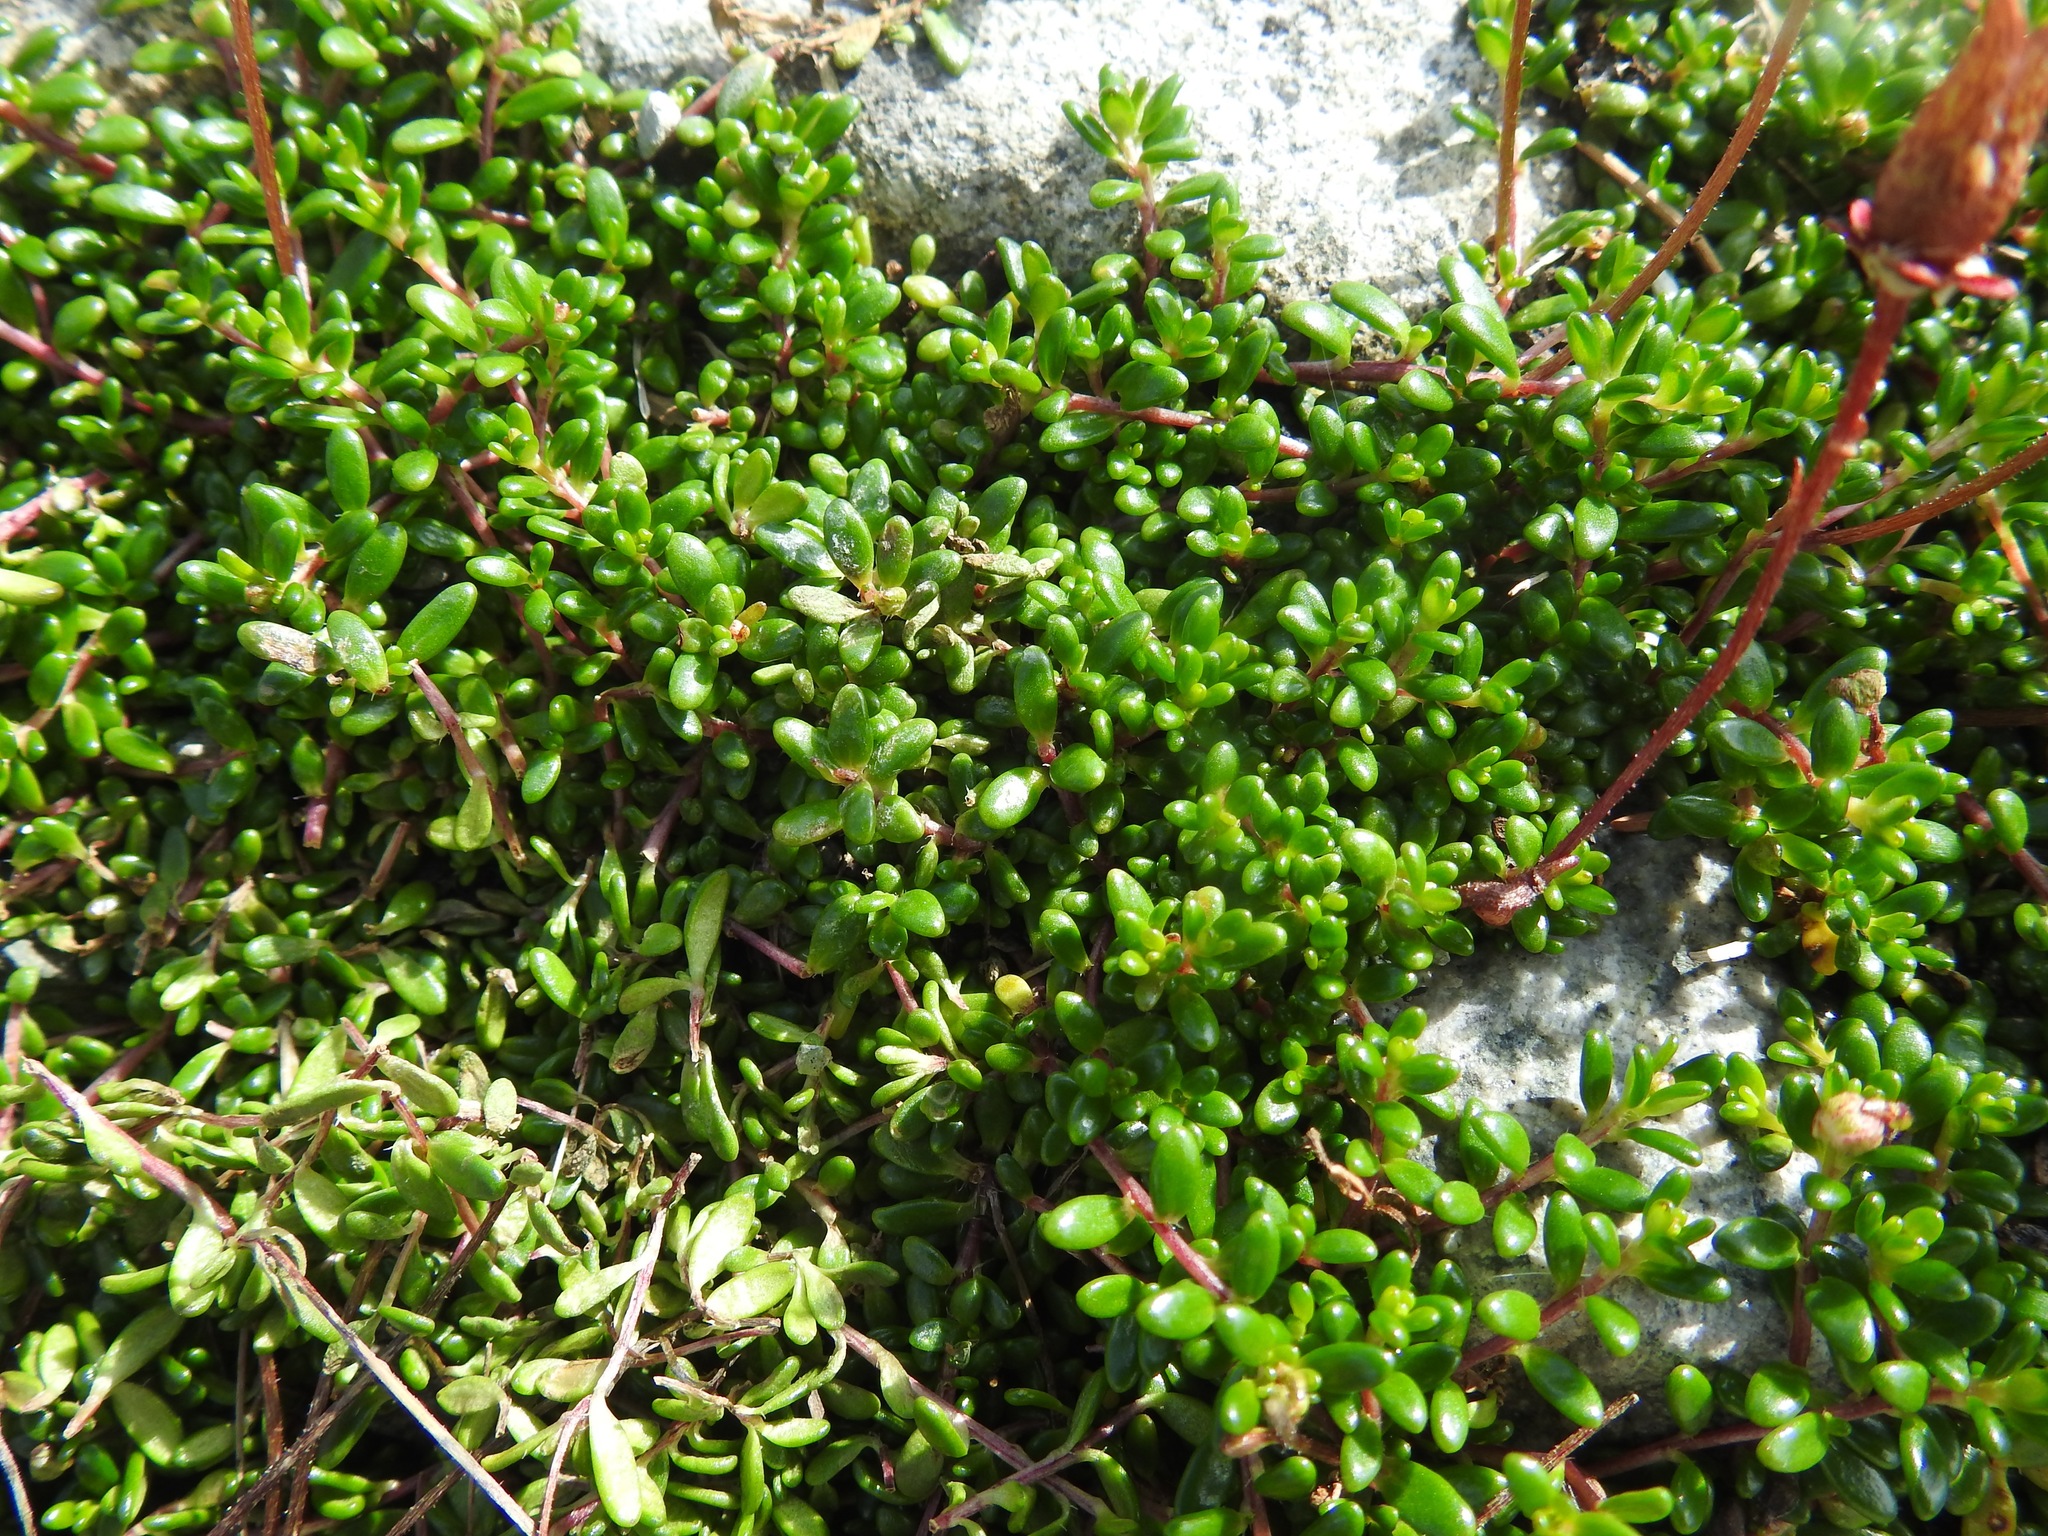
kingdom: Plantae
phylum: Tracheophyta
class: Magnoliopsida
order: Saxifragales
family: Saxifragaceae
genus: Micranthes
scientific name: Micranthes tolmiei
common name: Tolmie's saxifrage
